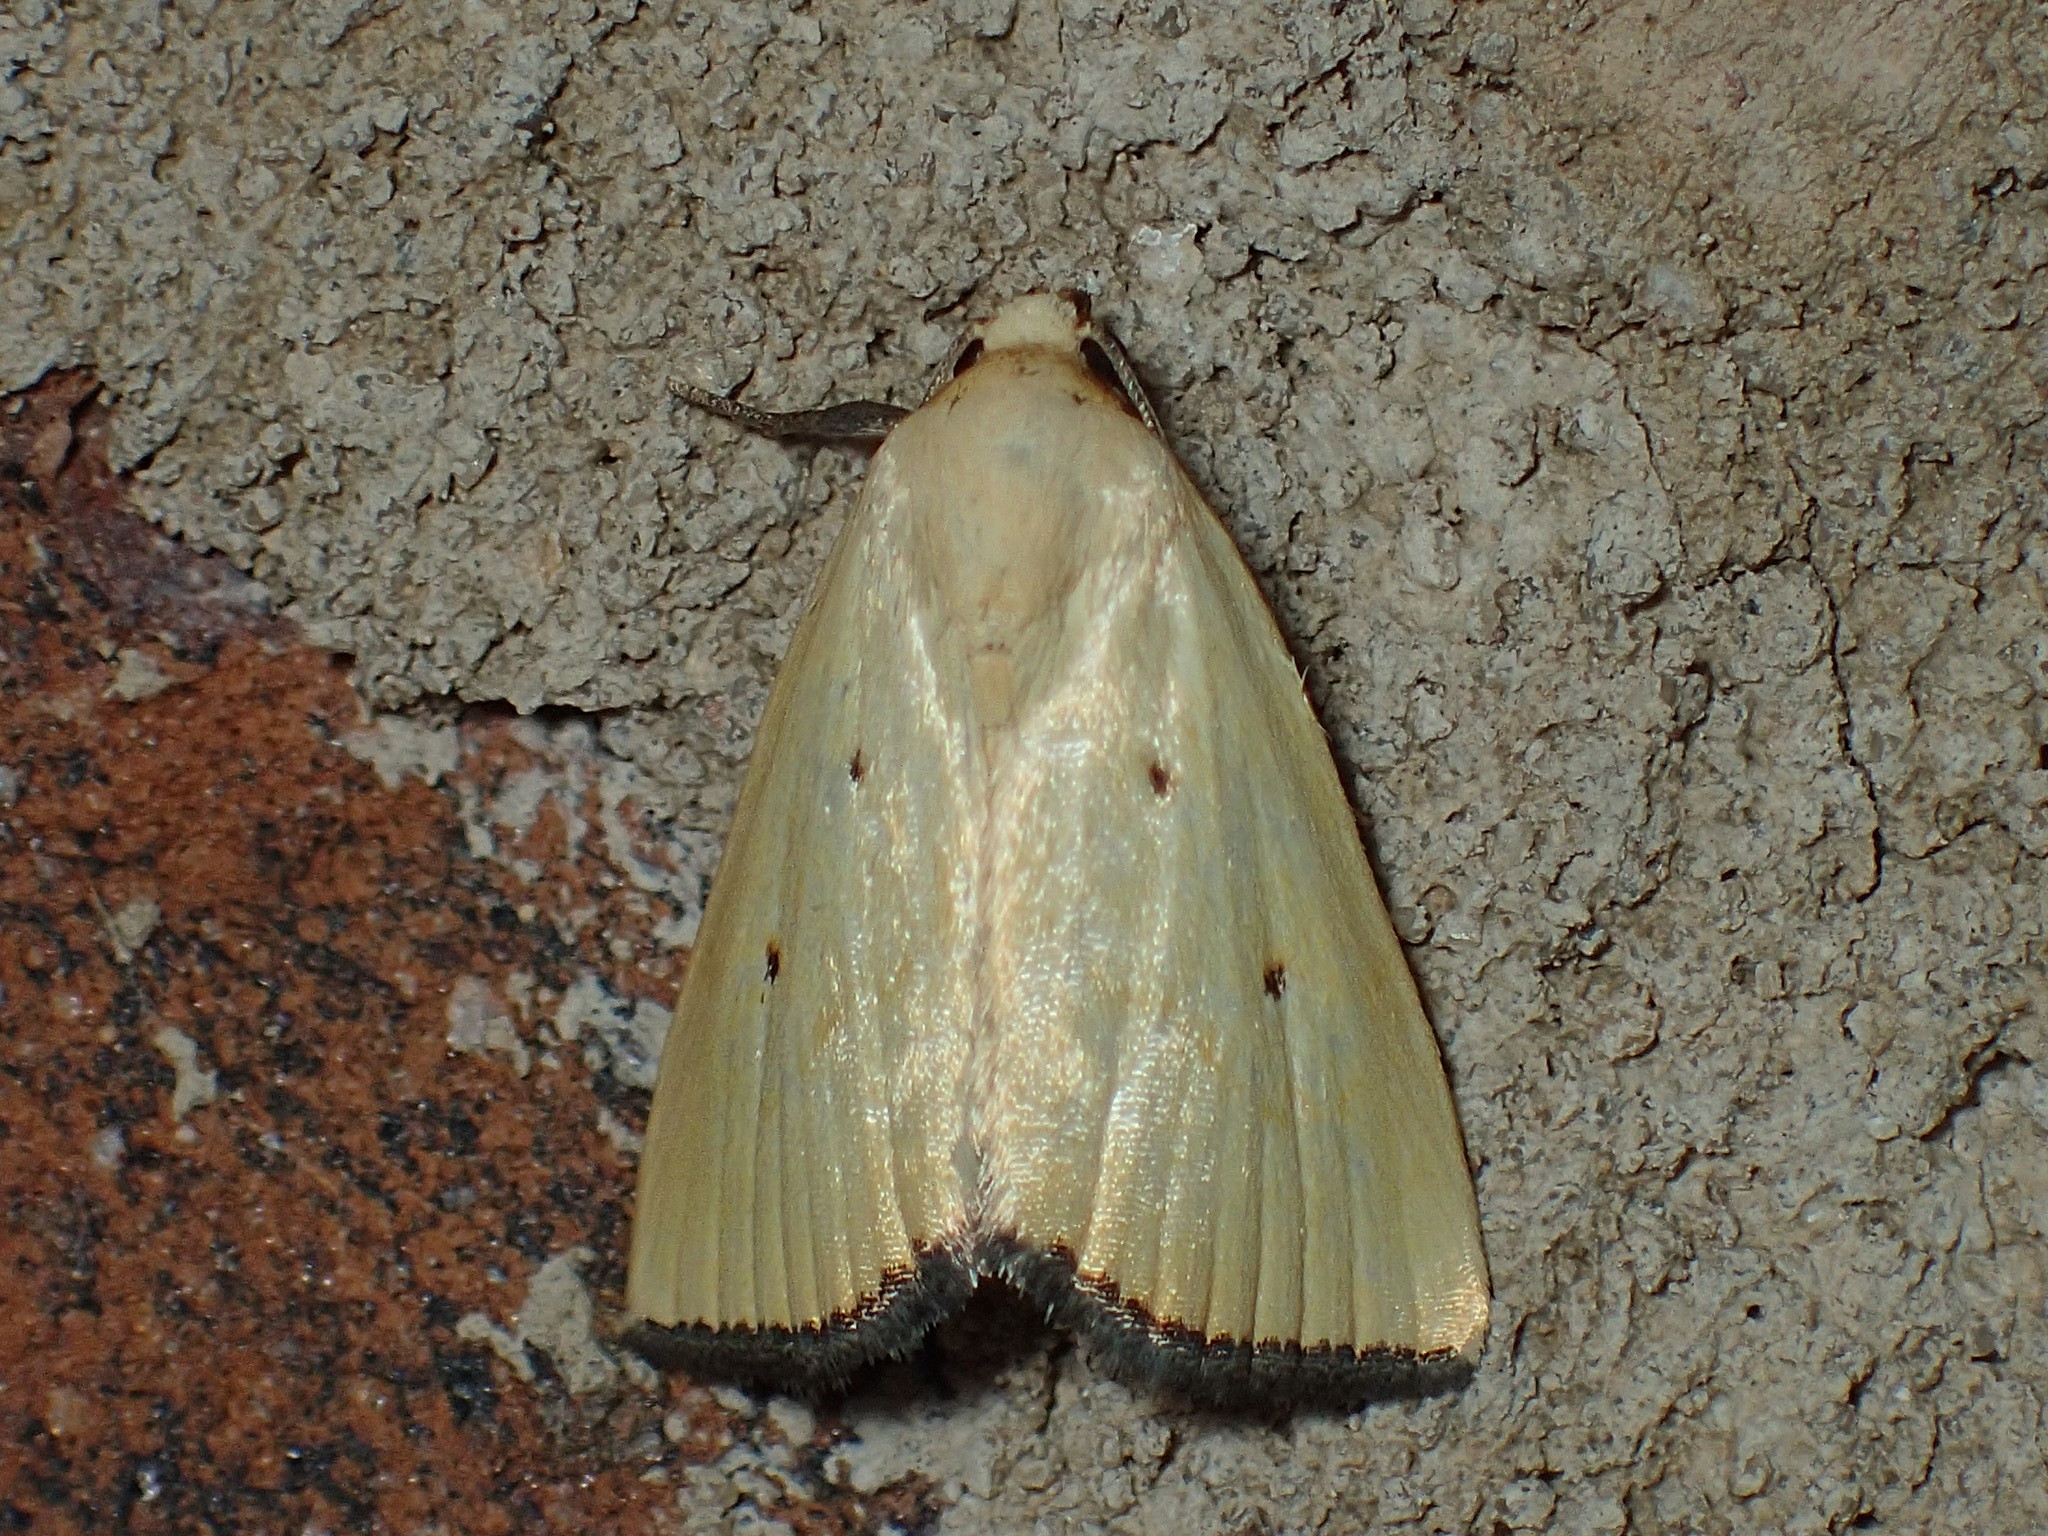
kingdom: Animalia
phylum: Arthropoda
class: Insecta
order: Lepidoptera
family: Noctuidae
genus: Marimatha
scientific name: Marimatha nigrofimbria
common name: Black-bordered lemon moth
